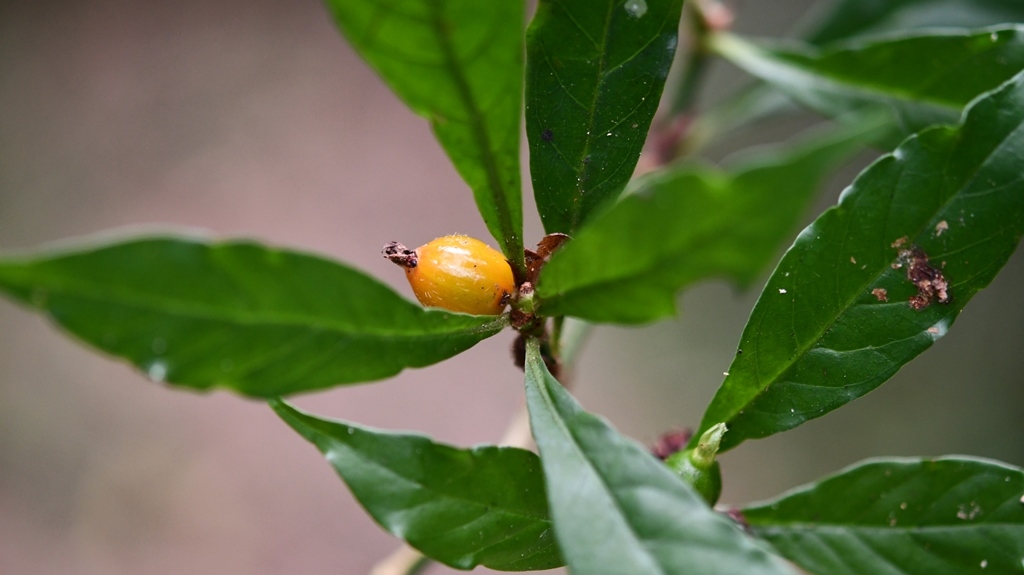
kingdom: Plantae
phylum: Tracheophyta
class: Magnoliopsida
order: Gentianales
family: Rubiaceae
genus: Psychotria
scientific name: Psychotria mirandae
